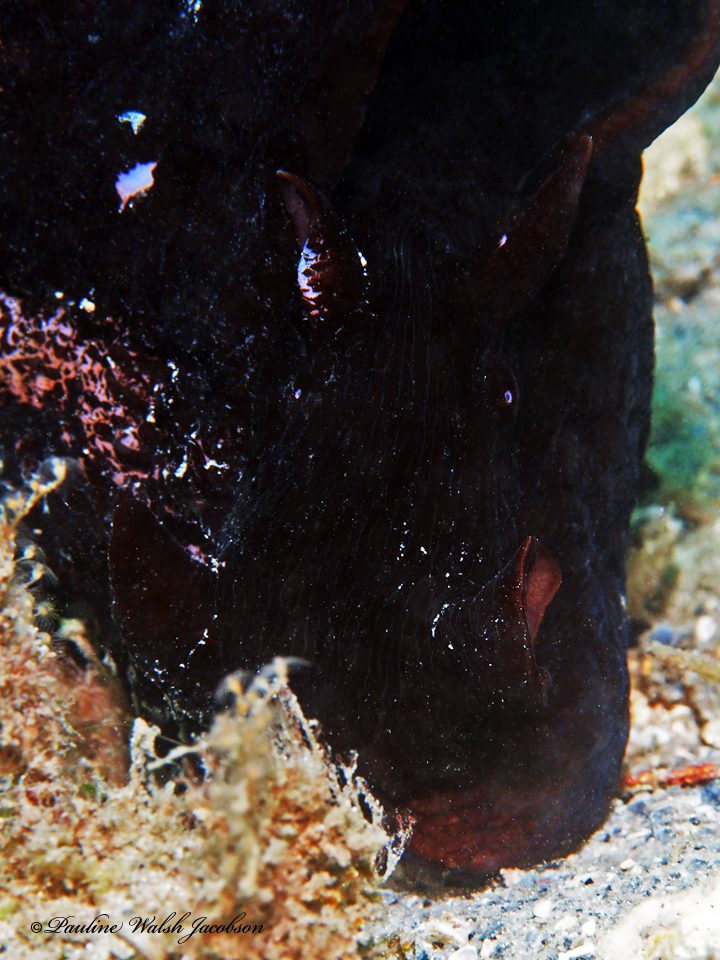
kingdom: Animalia
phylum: Mollusca
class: Gastropoda
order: Aplysiida
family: Aplysiidae
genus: Aplysia
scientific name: Aplysia morio
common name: Atlantic black seahare
